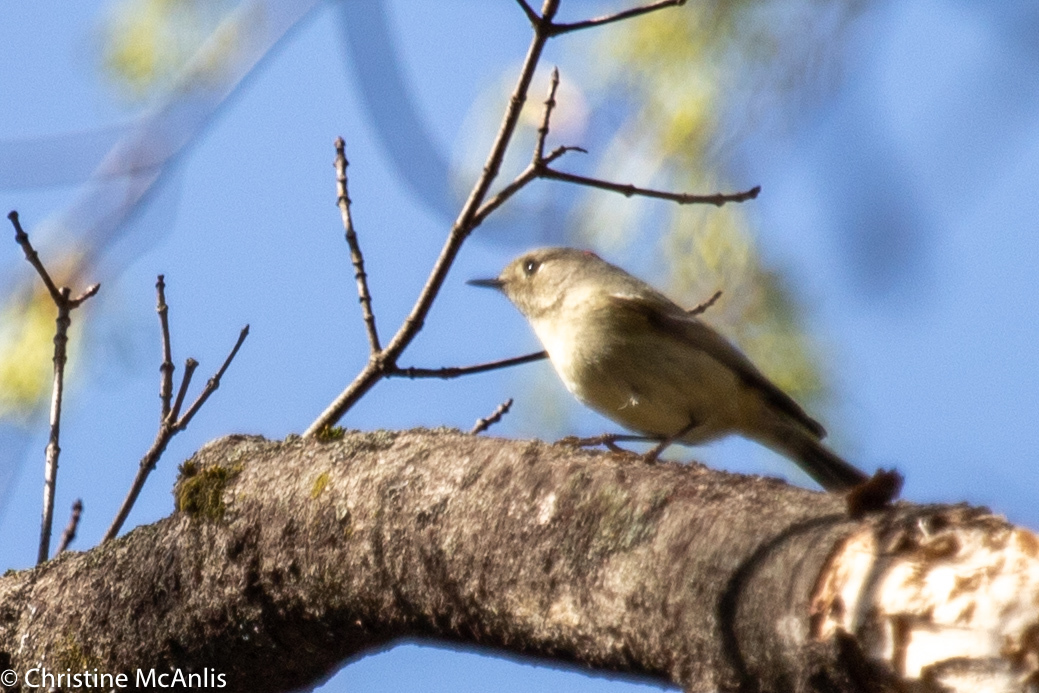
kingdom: Animalia
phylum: Chordata
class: Aves
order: Passeriformes
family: Regulidae
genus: Regulus
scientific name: Regulus calendula
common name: Ruby-crowned kinglet
